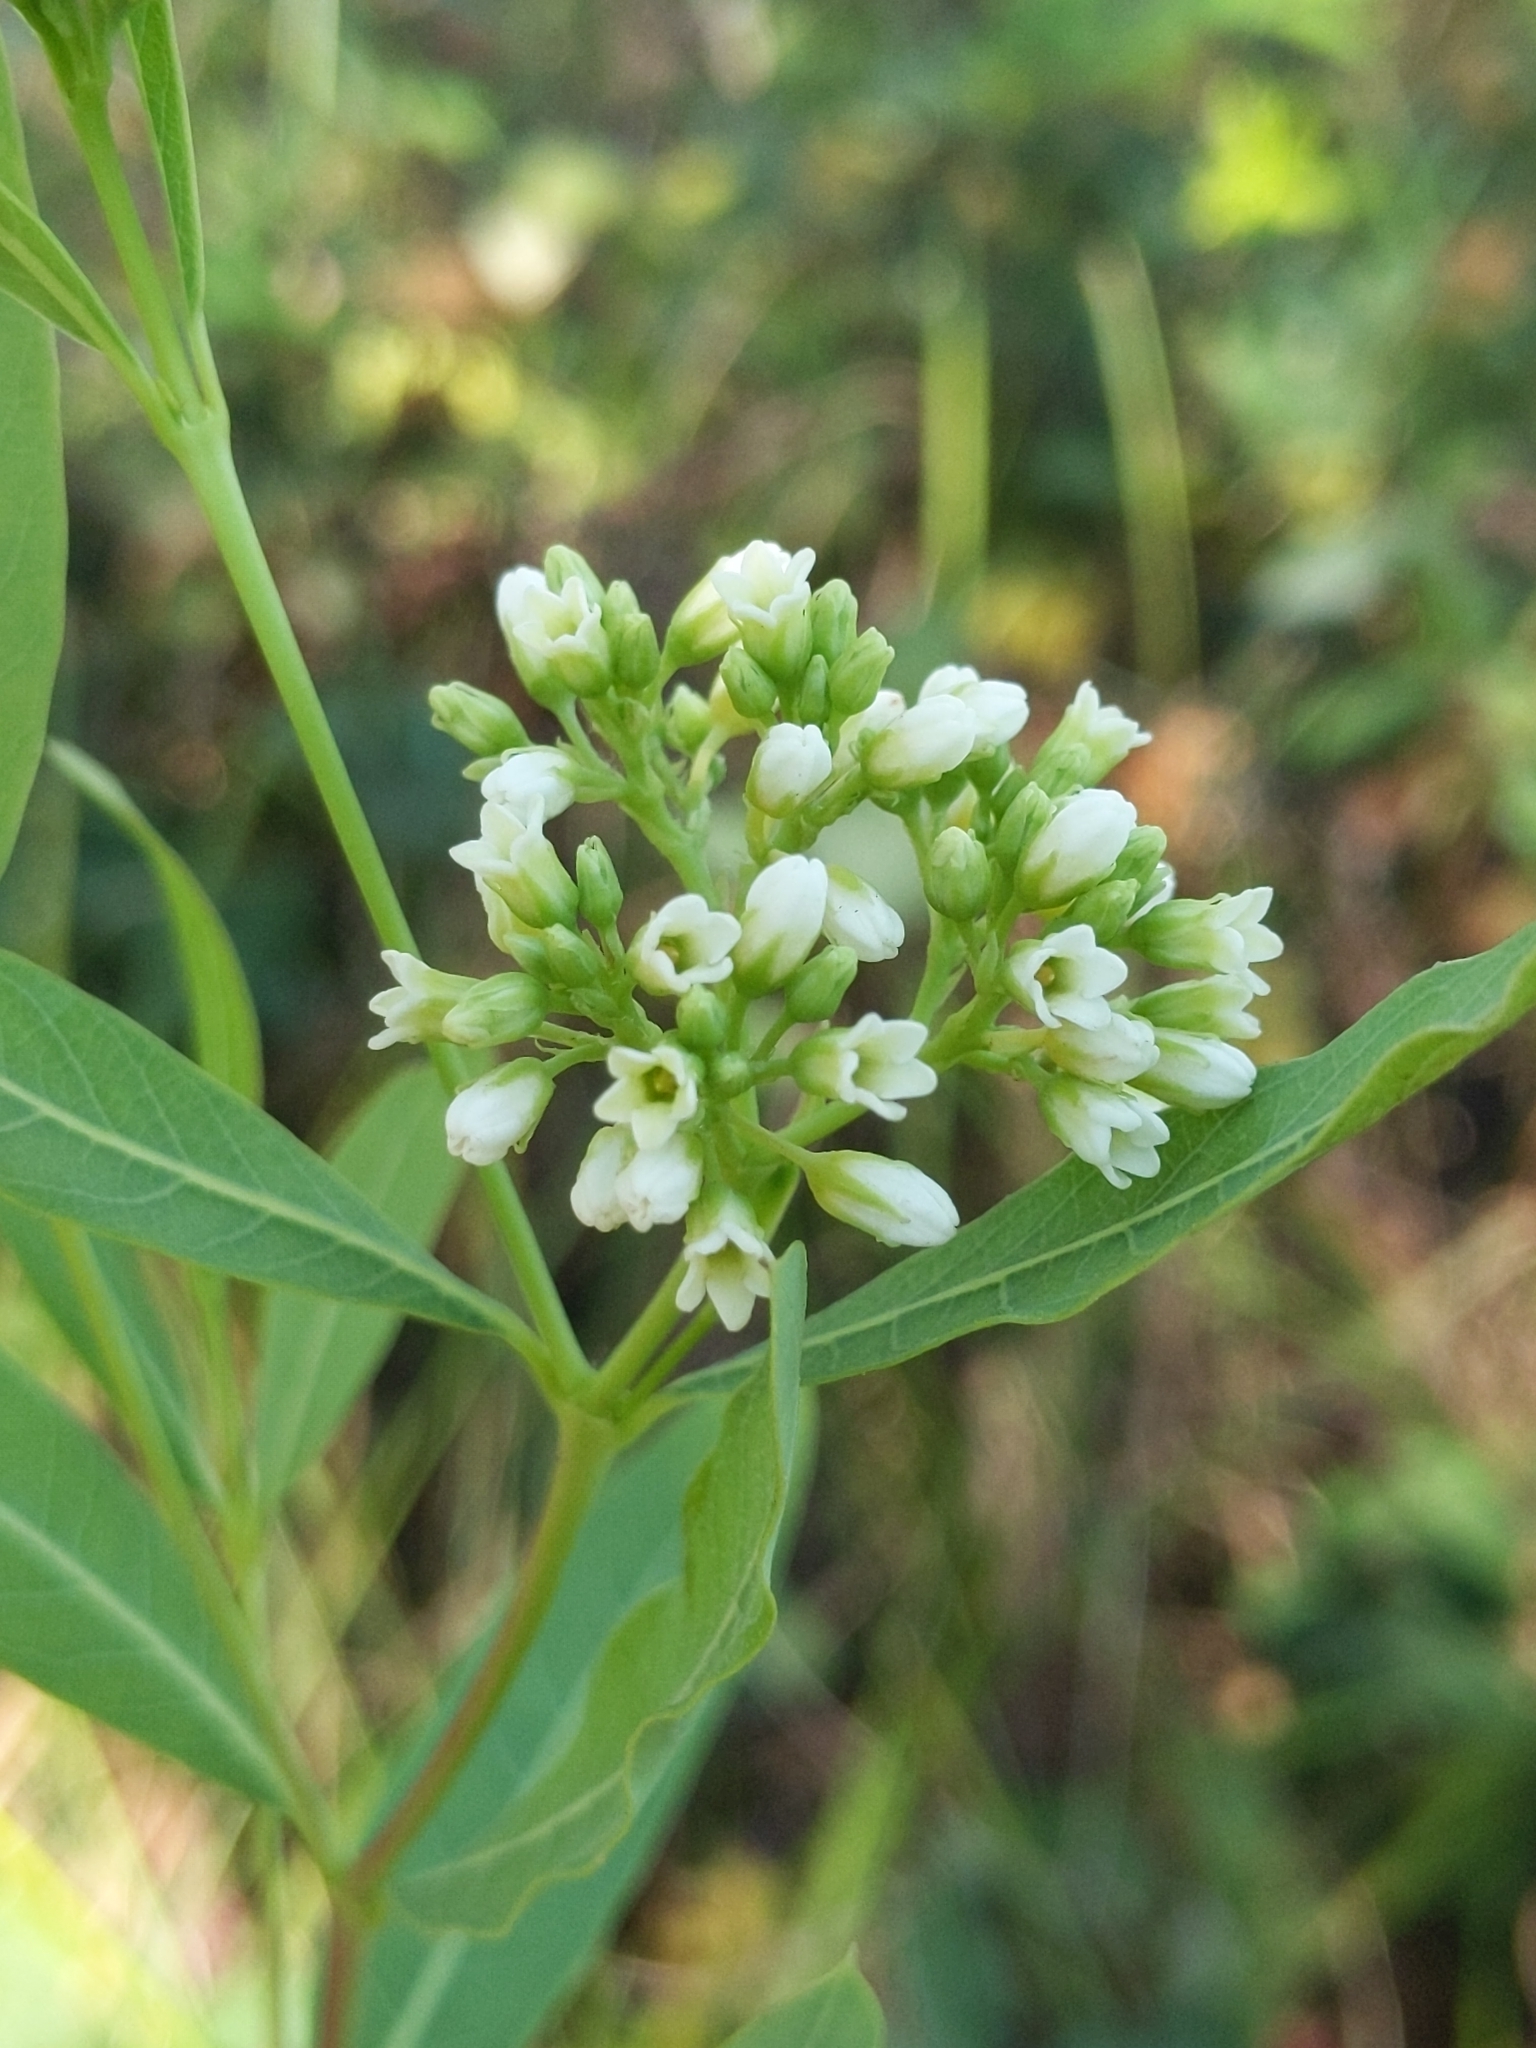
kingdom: Plantae
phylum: Tracheophyta
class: Magnoliopsida
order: Gentianales
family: Apocynaceae
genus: Apocynum
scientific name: Apocynum cannabinum
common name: Hemp dogbane
